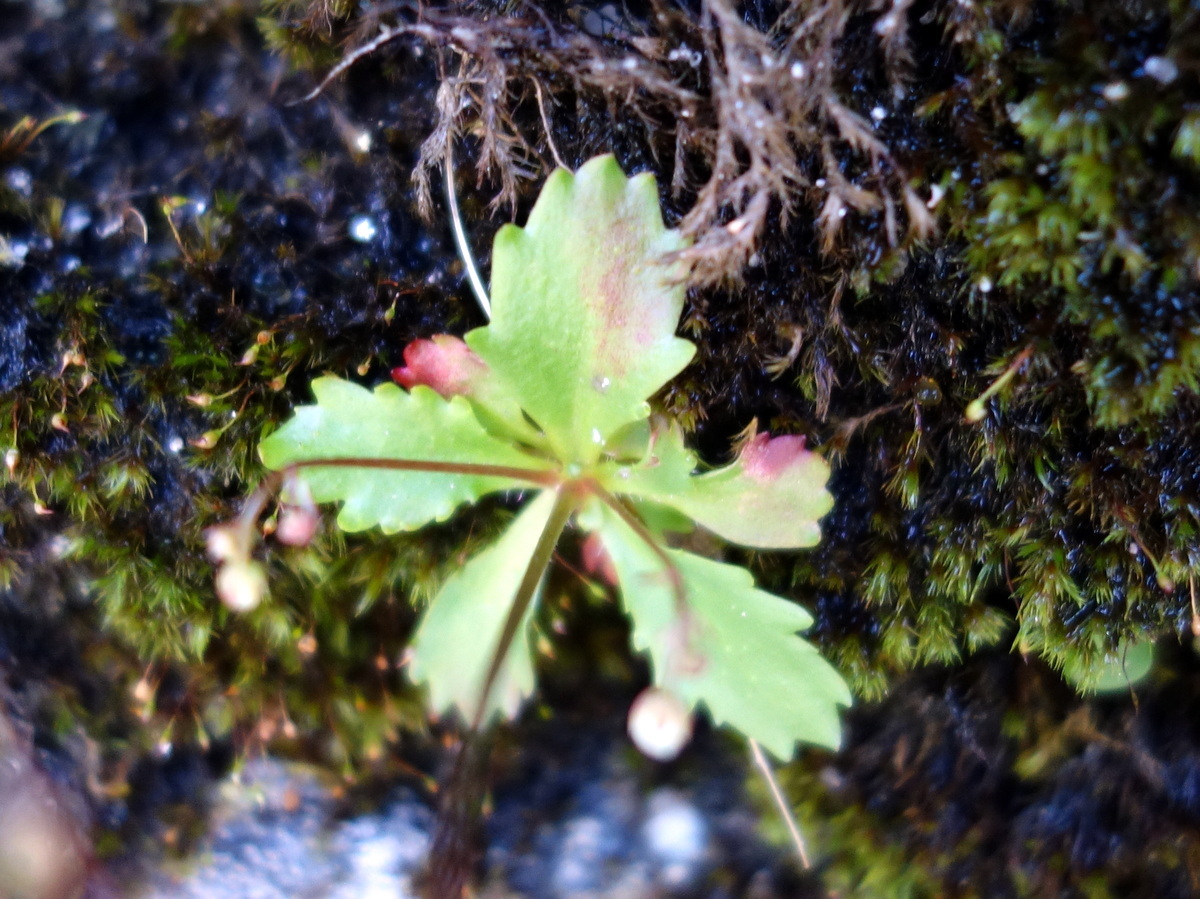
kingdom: Plantae
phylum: Tracheophyta
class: Magnoliopsida
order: Saxifragales
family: Saxifragaceae
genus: Micranthes
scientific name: Micranthes stellaris
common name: Starry saxifrage
